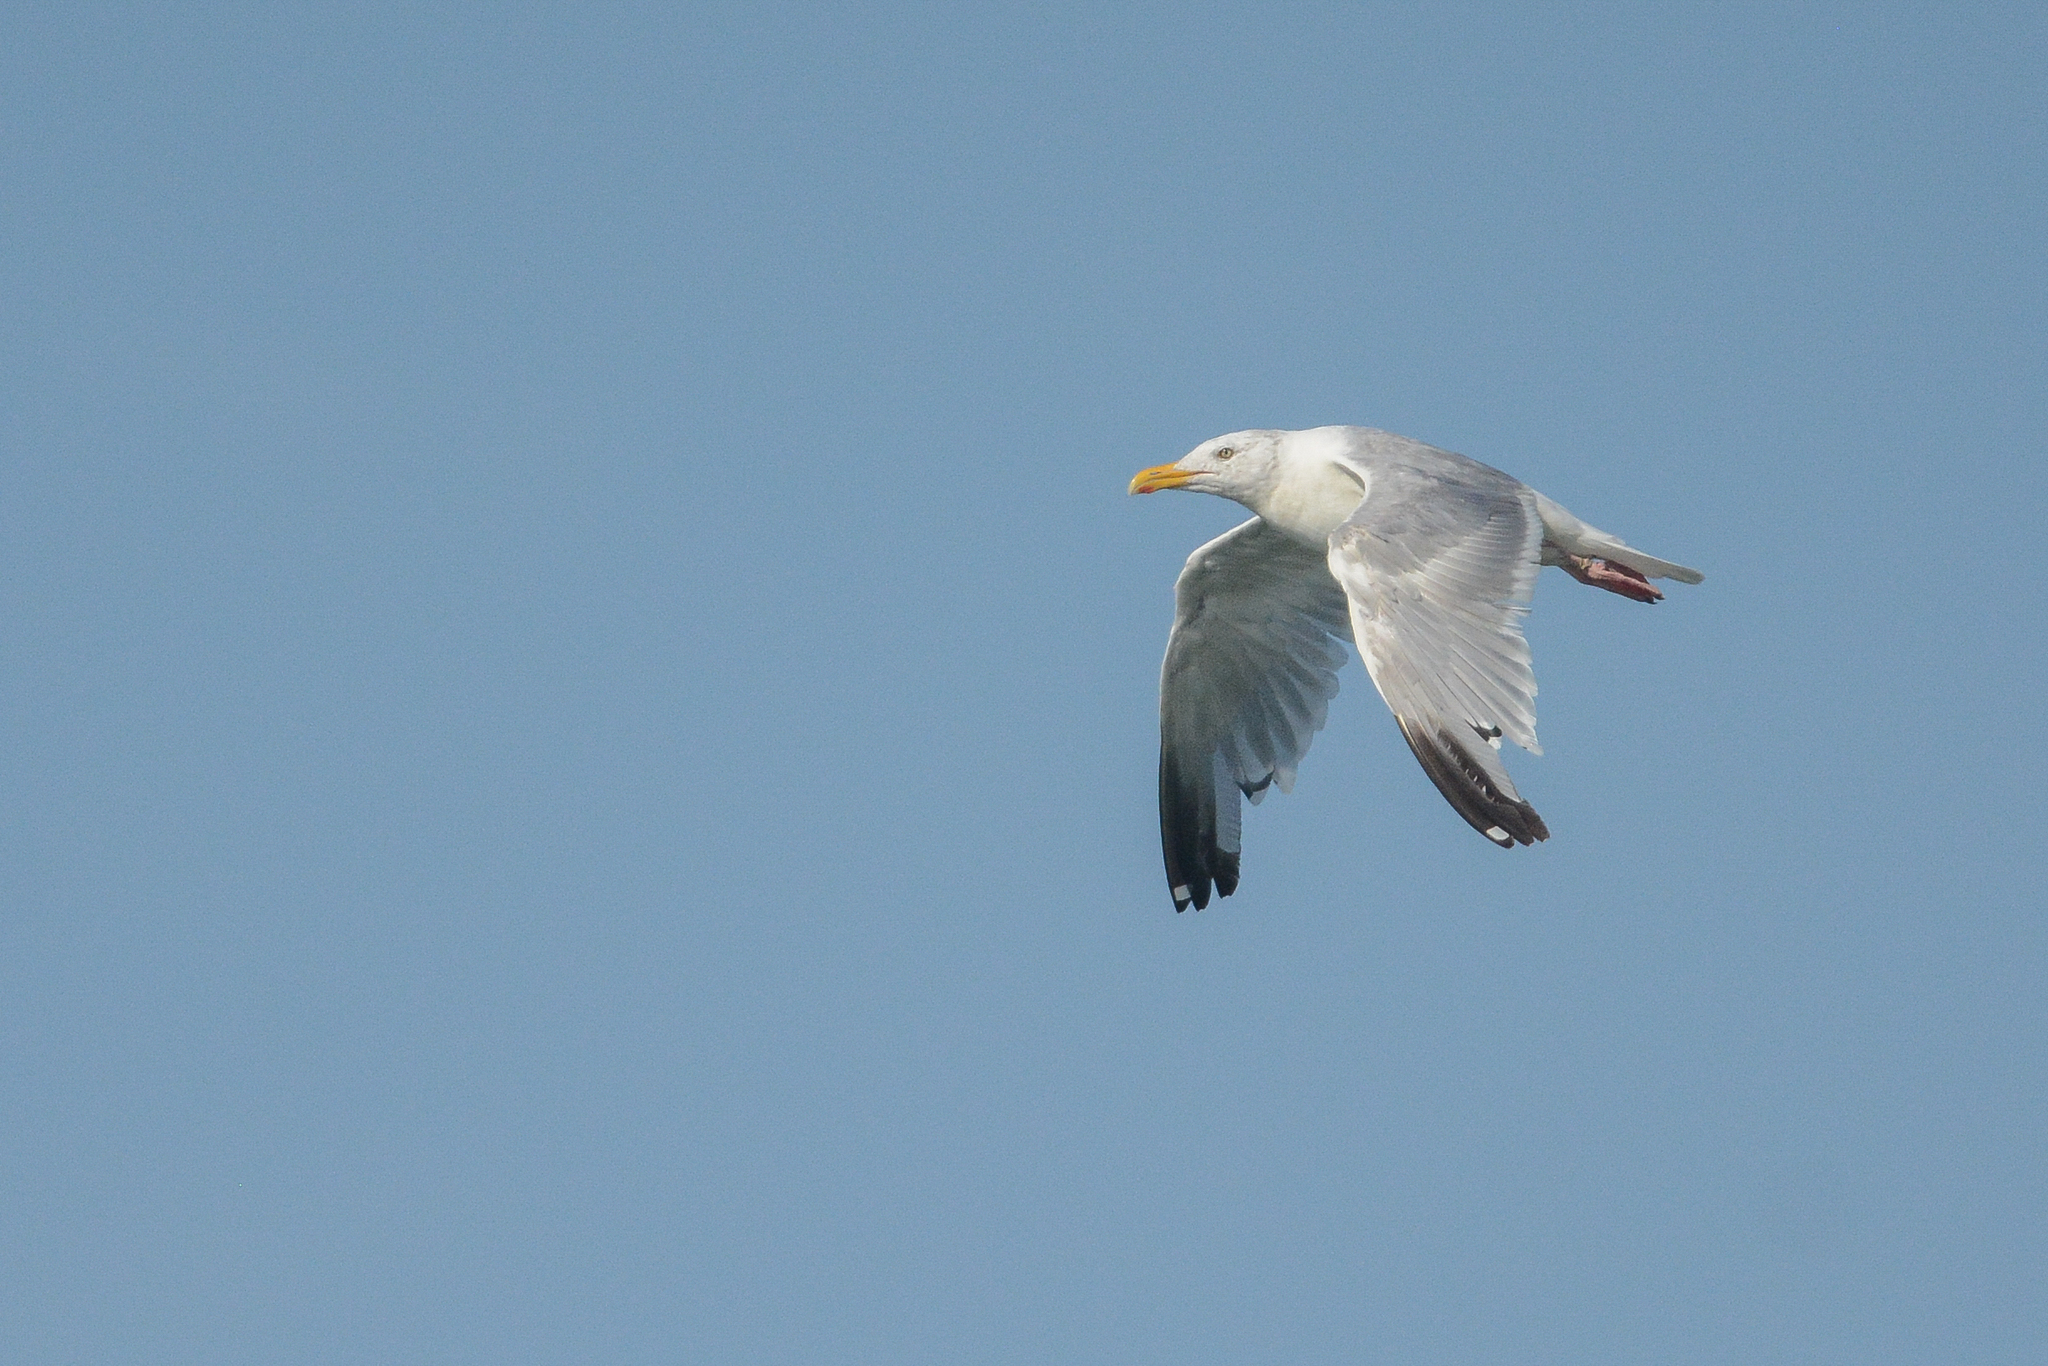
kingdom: Animalia
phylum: Chordata
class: Aves
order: Charadriiformes
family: Laridae
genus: Larus
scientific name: Larus argentatus
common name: Herring gull
